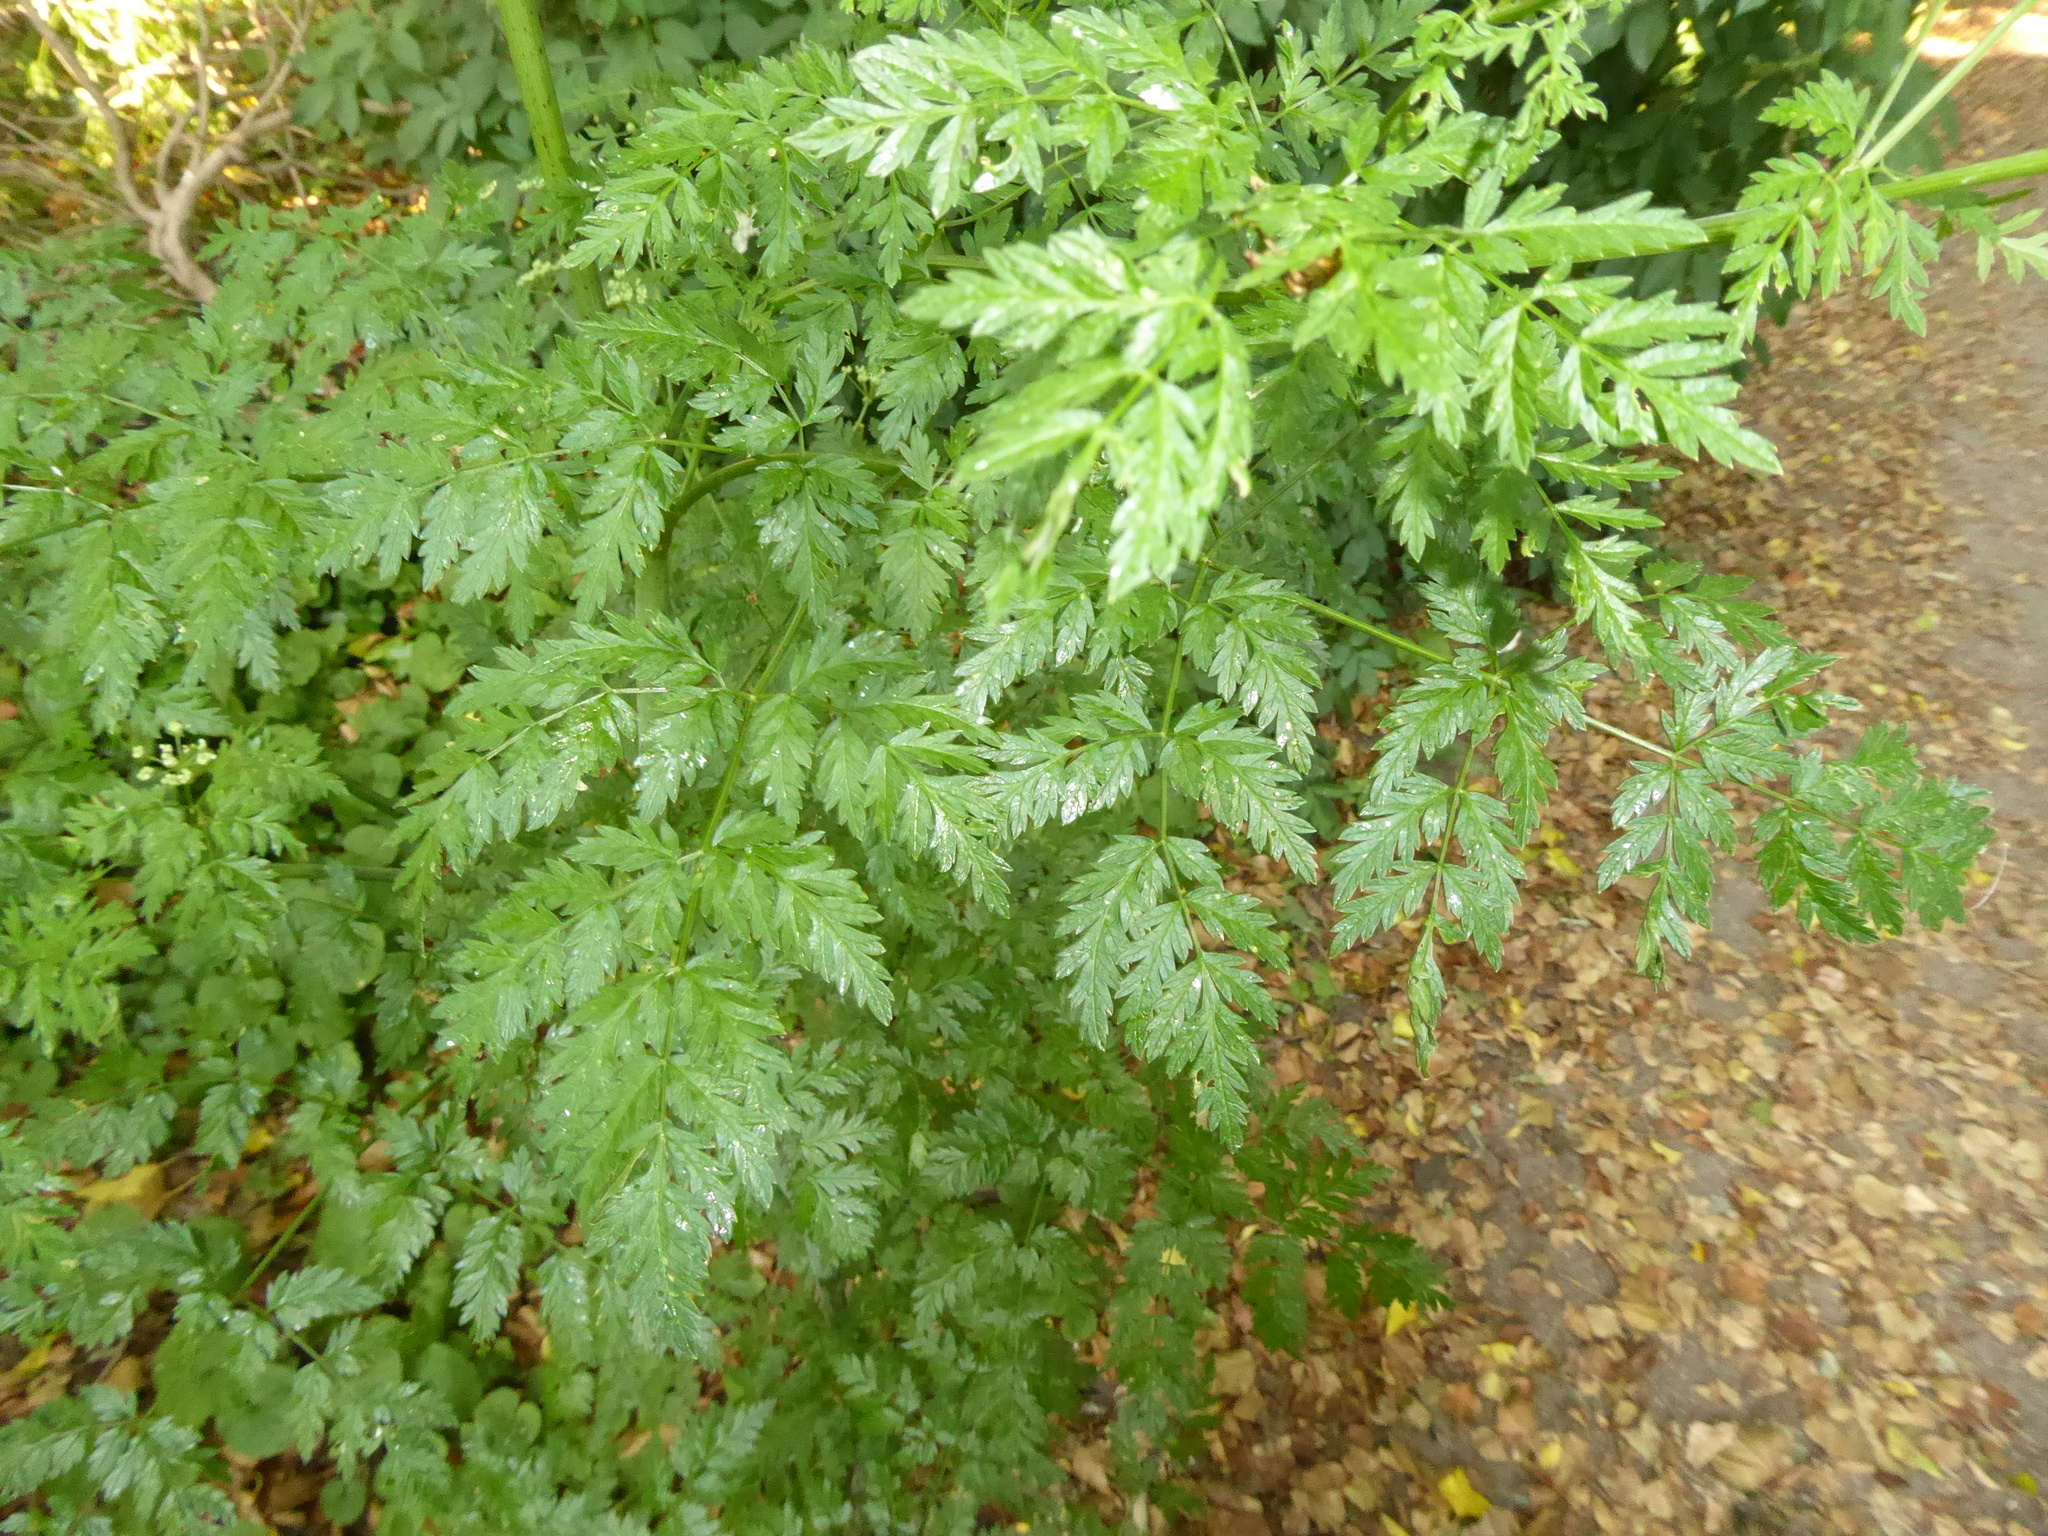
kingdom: Plantae
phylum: Tracheophyta
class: Magnoliopsida
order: Apiales
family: Apiaceae
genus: Conium
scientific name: Conium maculatum
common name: Hemlock
